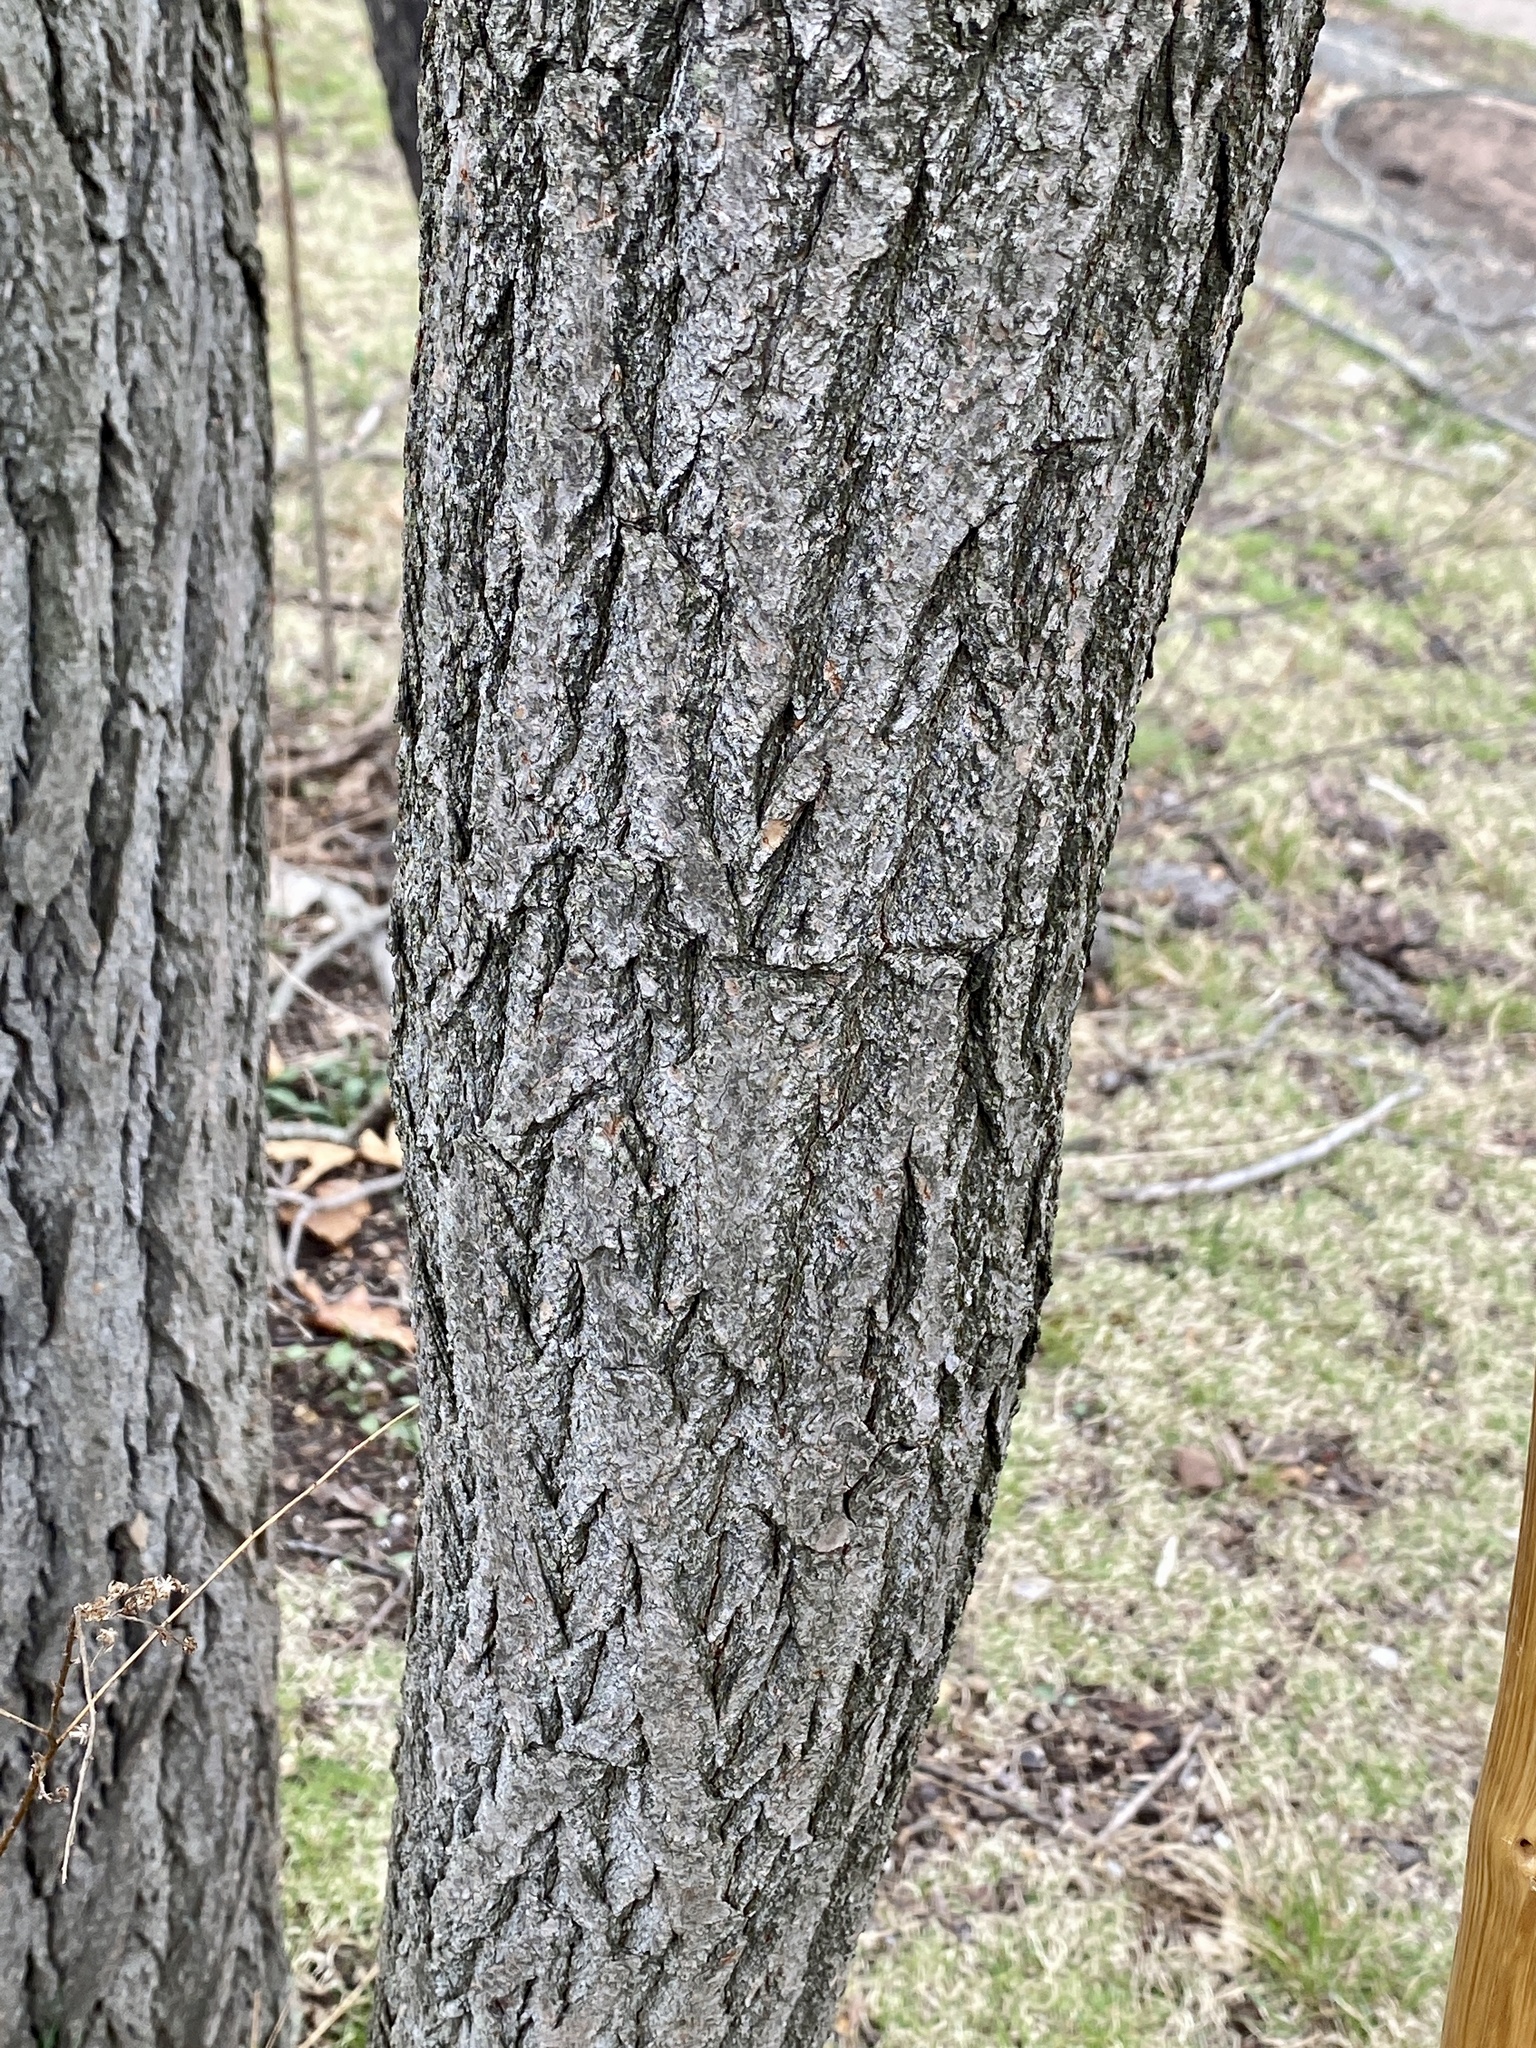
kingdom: Plantae
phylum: Tracheophyta
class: Magnoliopsida
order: Laurales
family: Lauraceae
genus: Sassafras
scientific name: Sassafras albidum
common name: Sassafras
